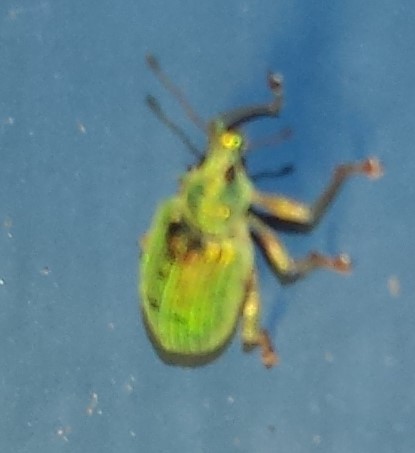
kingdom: Animalia
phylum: Arthropoda
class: Insecta
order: Coleoptera
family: Curculionidae
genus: Polydrusus
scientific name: Polydrusus formosus
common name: Weevil
